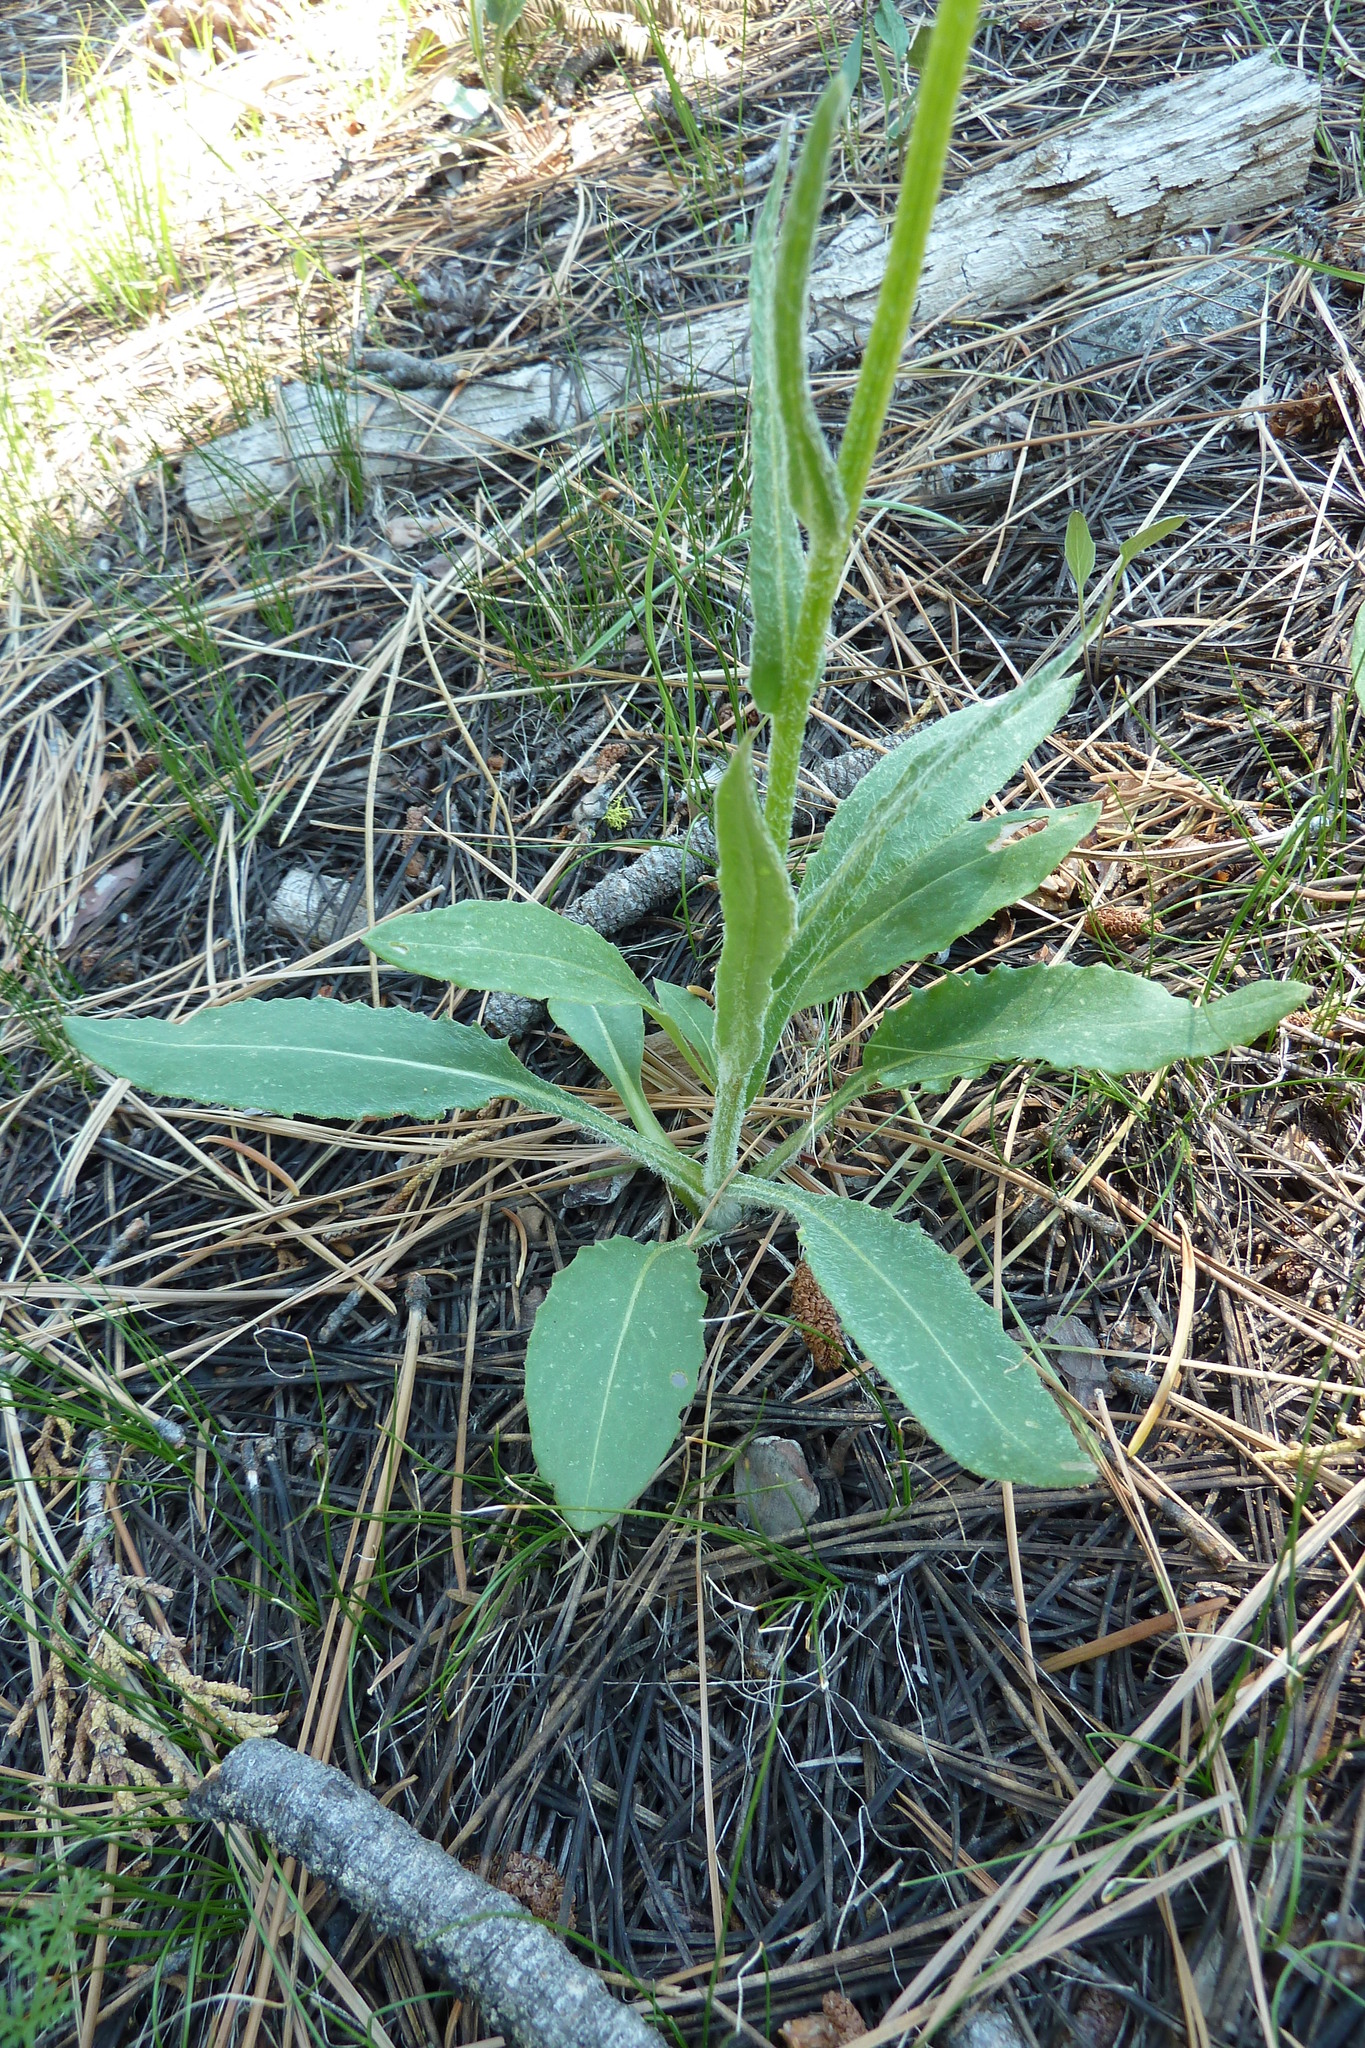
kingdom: Plantae
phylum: Tracheophyta
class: Magnoliopsida
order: Asterales
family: Asteraceae
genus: Senecio
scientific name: Senecio integerrimus
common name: Gaugeplant
